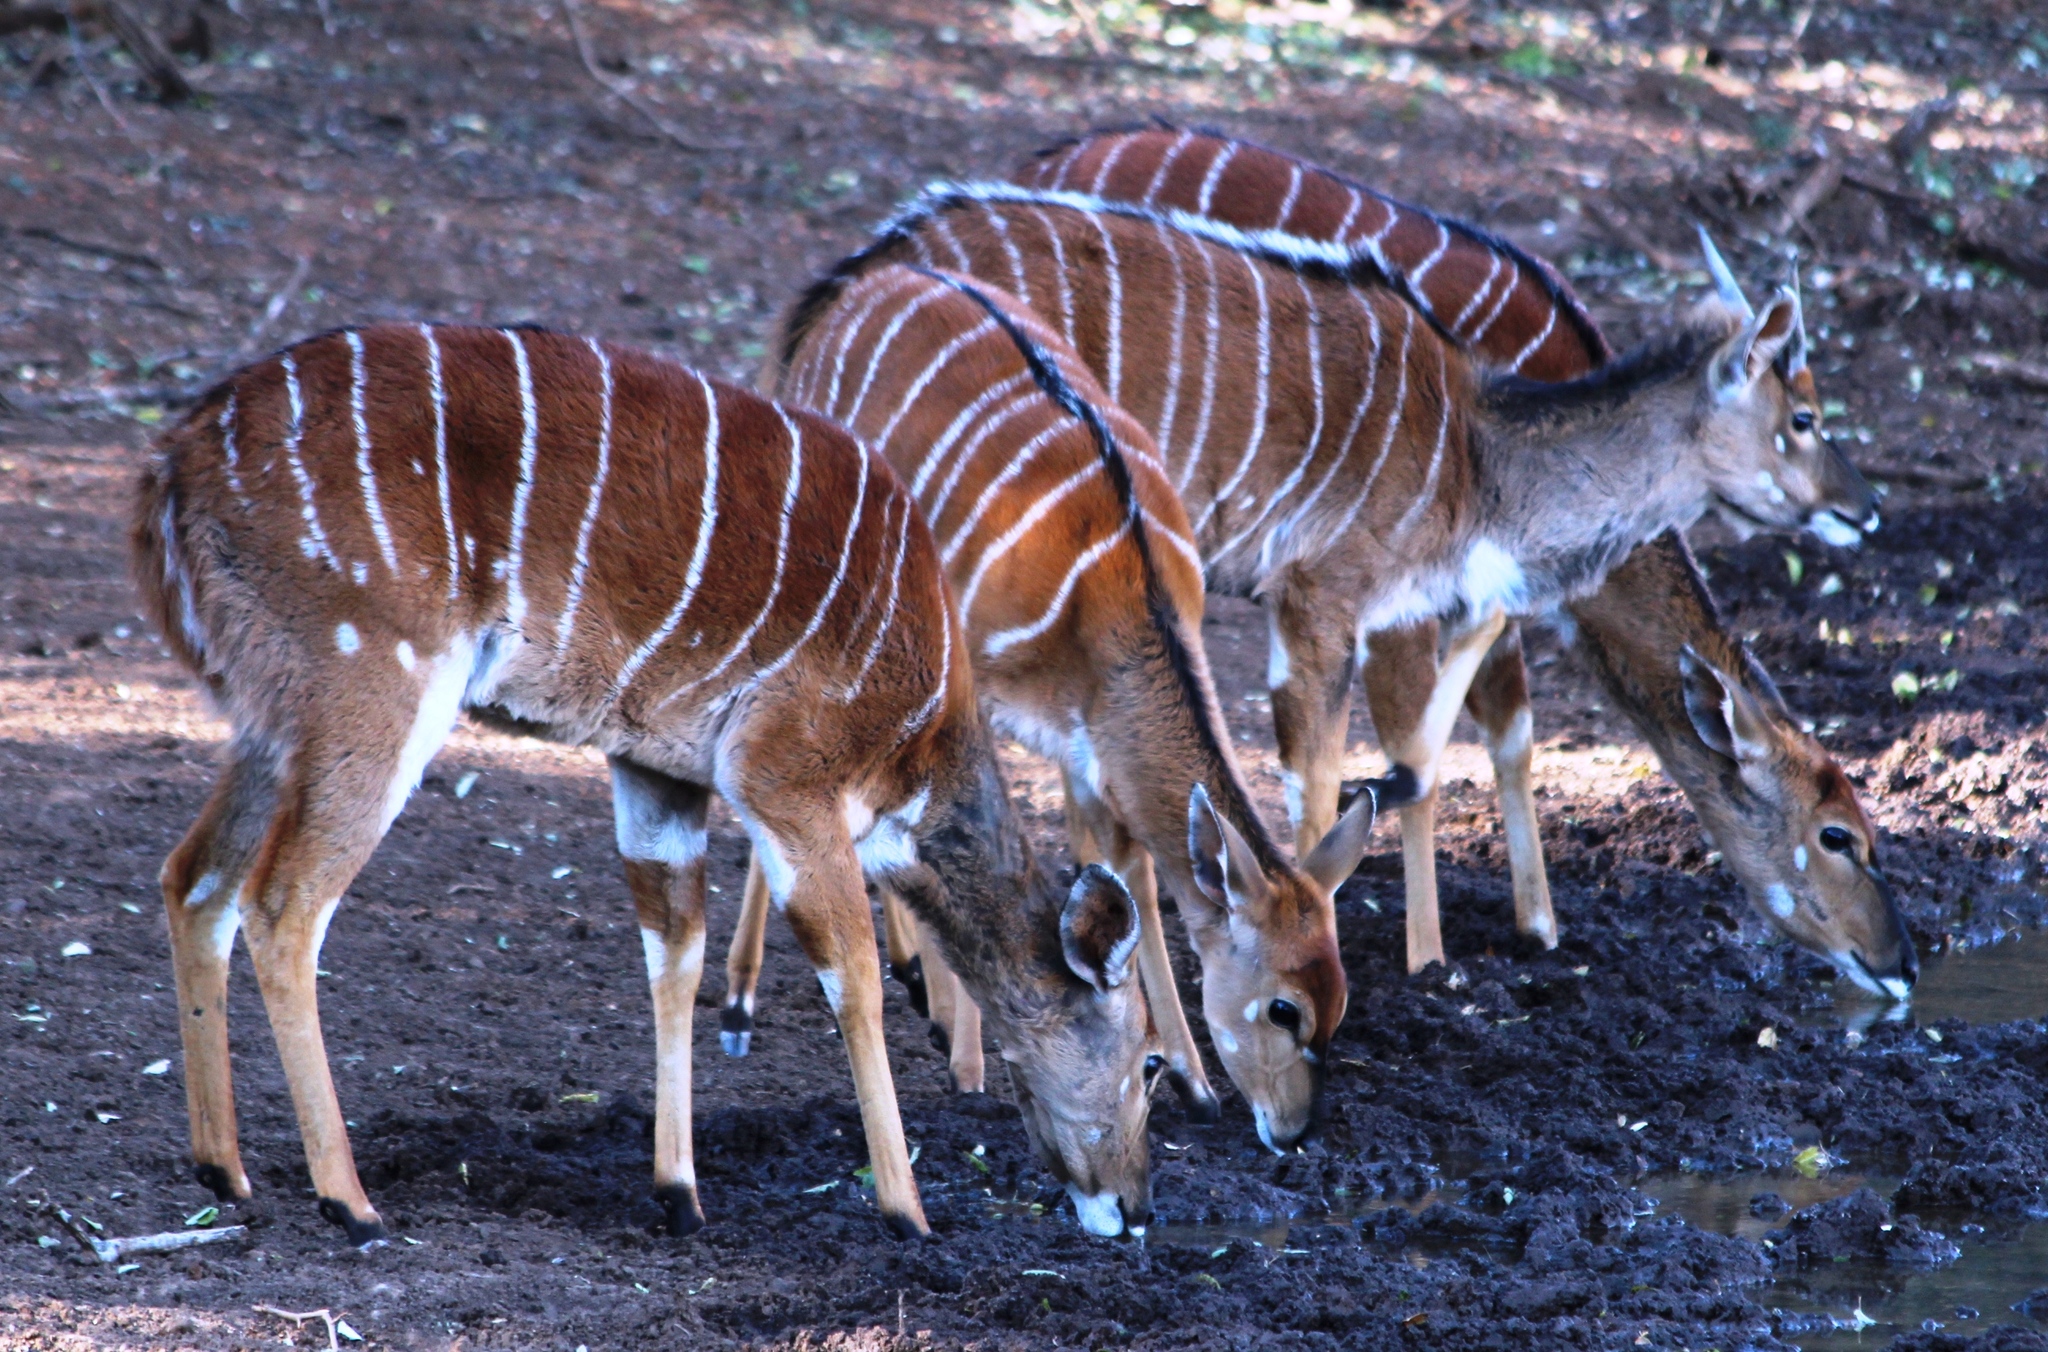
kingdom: Animalia
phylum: Chordata
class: Mammalia
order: Artiodactyla
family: Bovidae
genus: Tragelaphus
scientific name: Tragelaphus angasii
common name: Nyala
